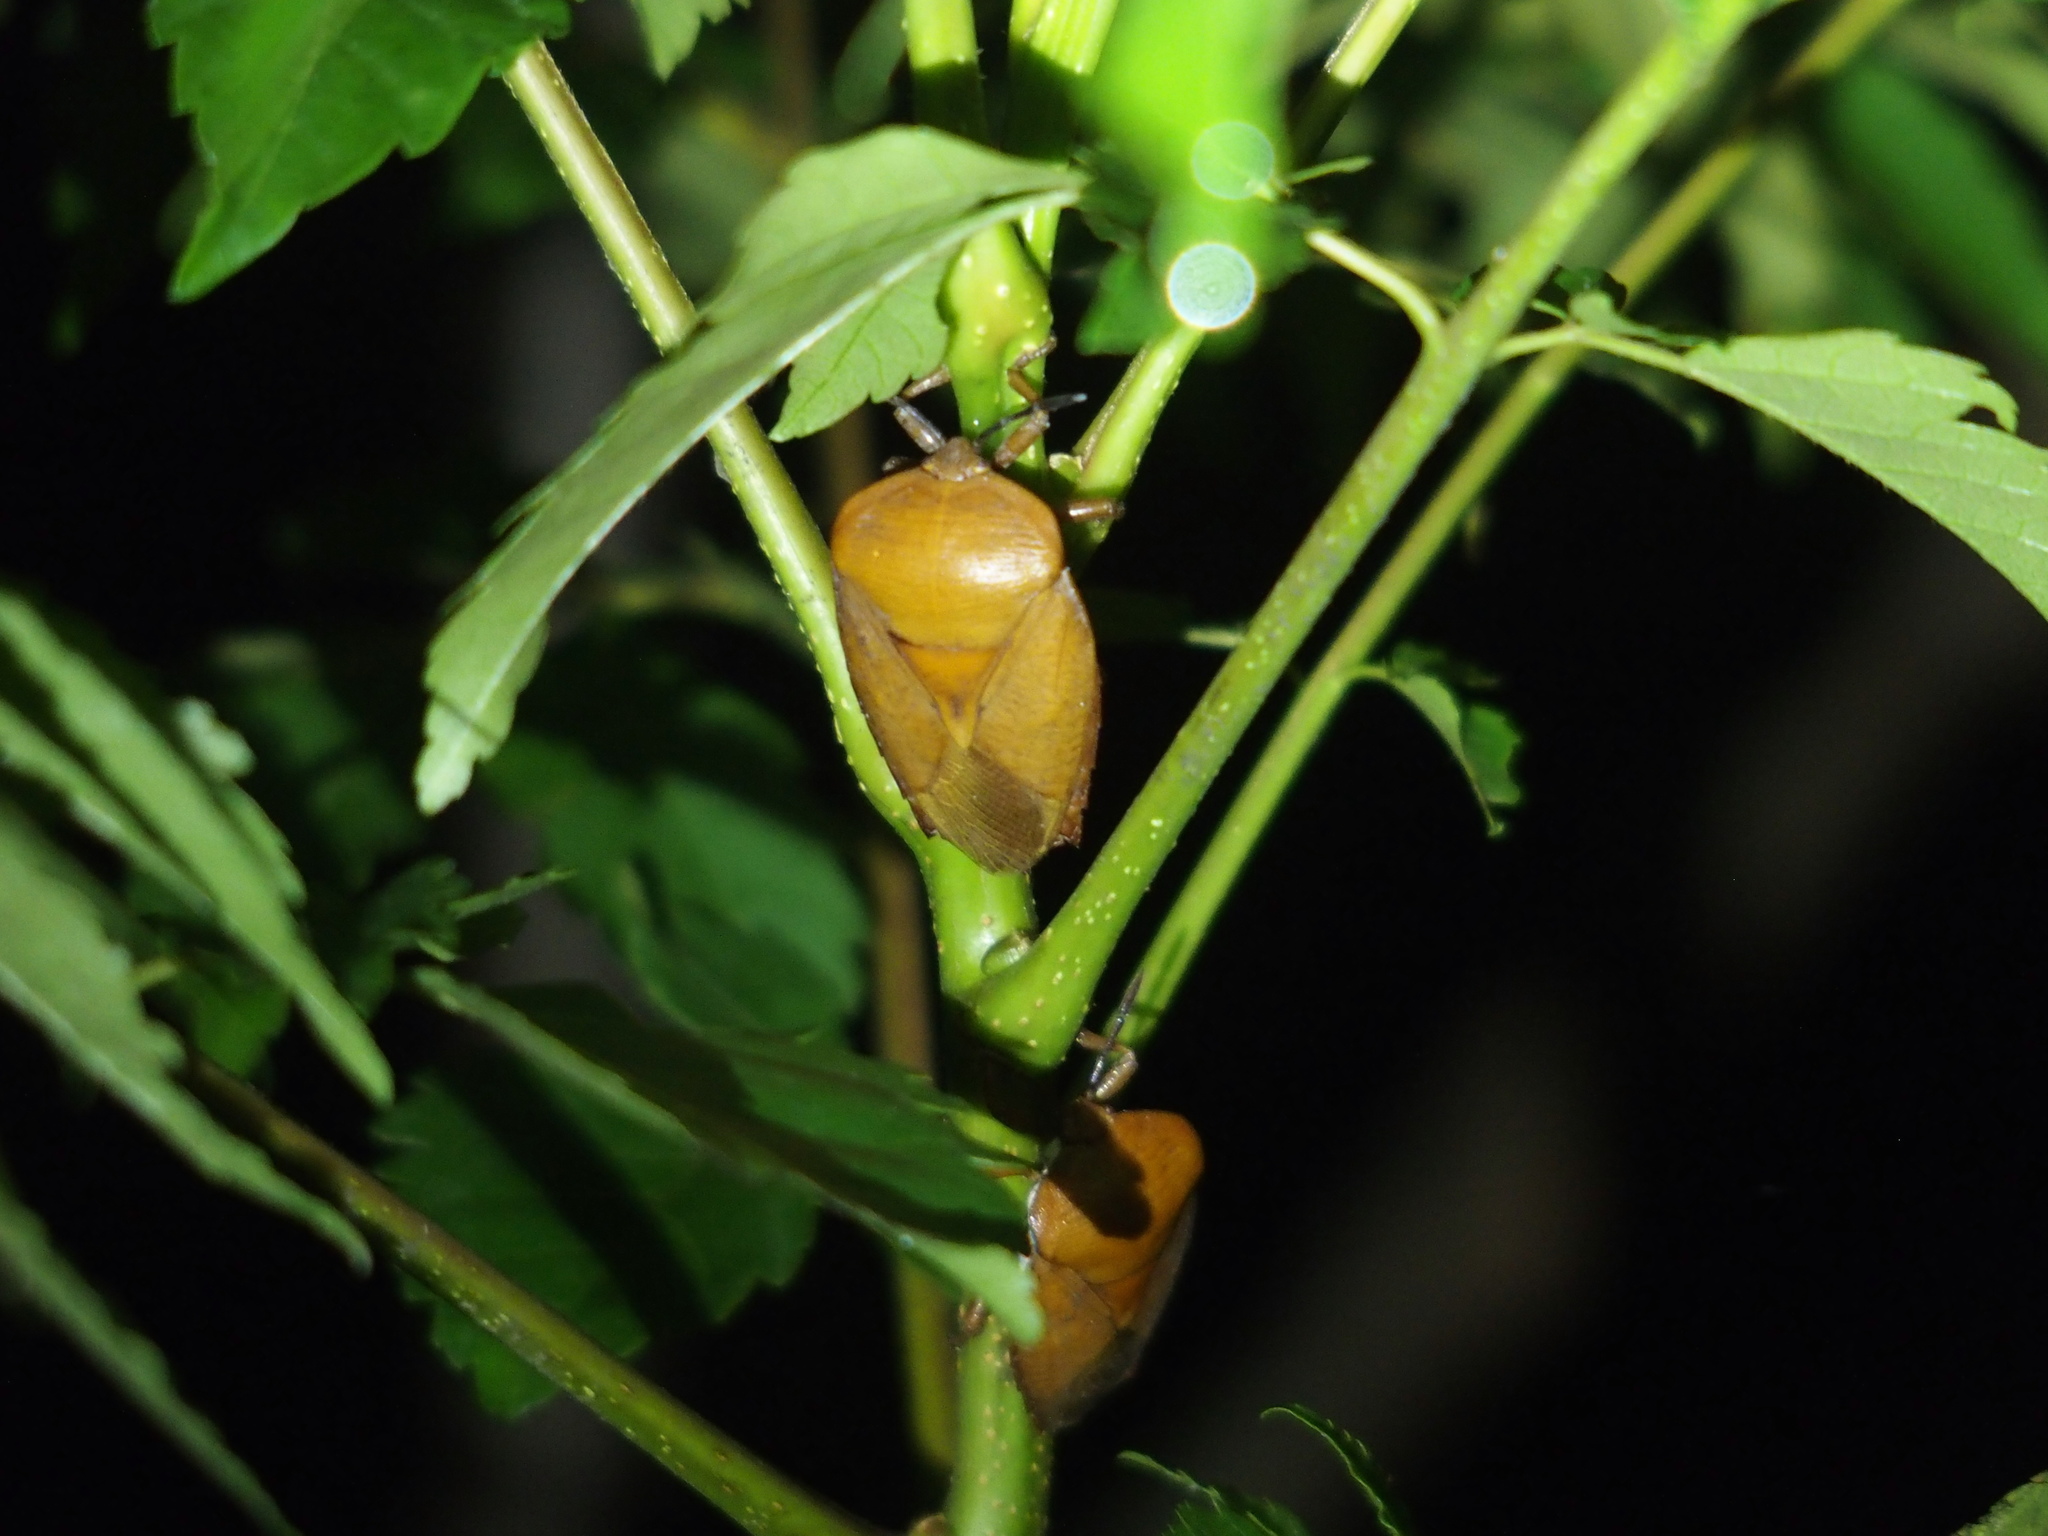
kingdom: Animalia
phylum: Arthropoda
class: Insecta
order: Hemiptera
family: Tessaratomidae
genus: Tessaratoma
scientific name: Tessaratoma papillosa
